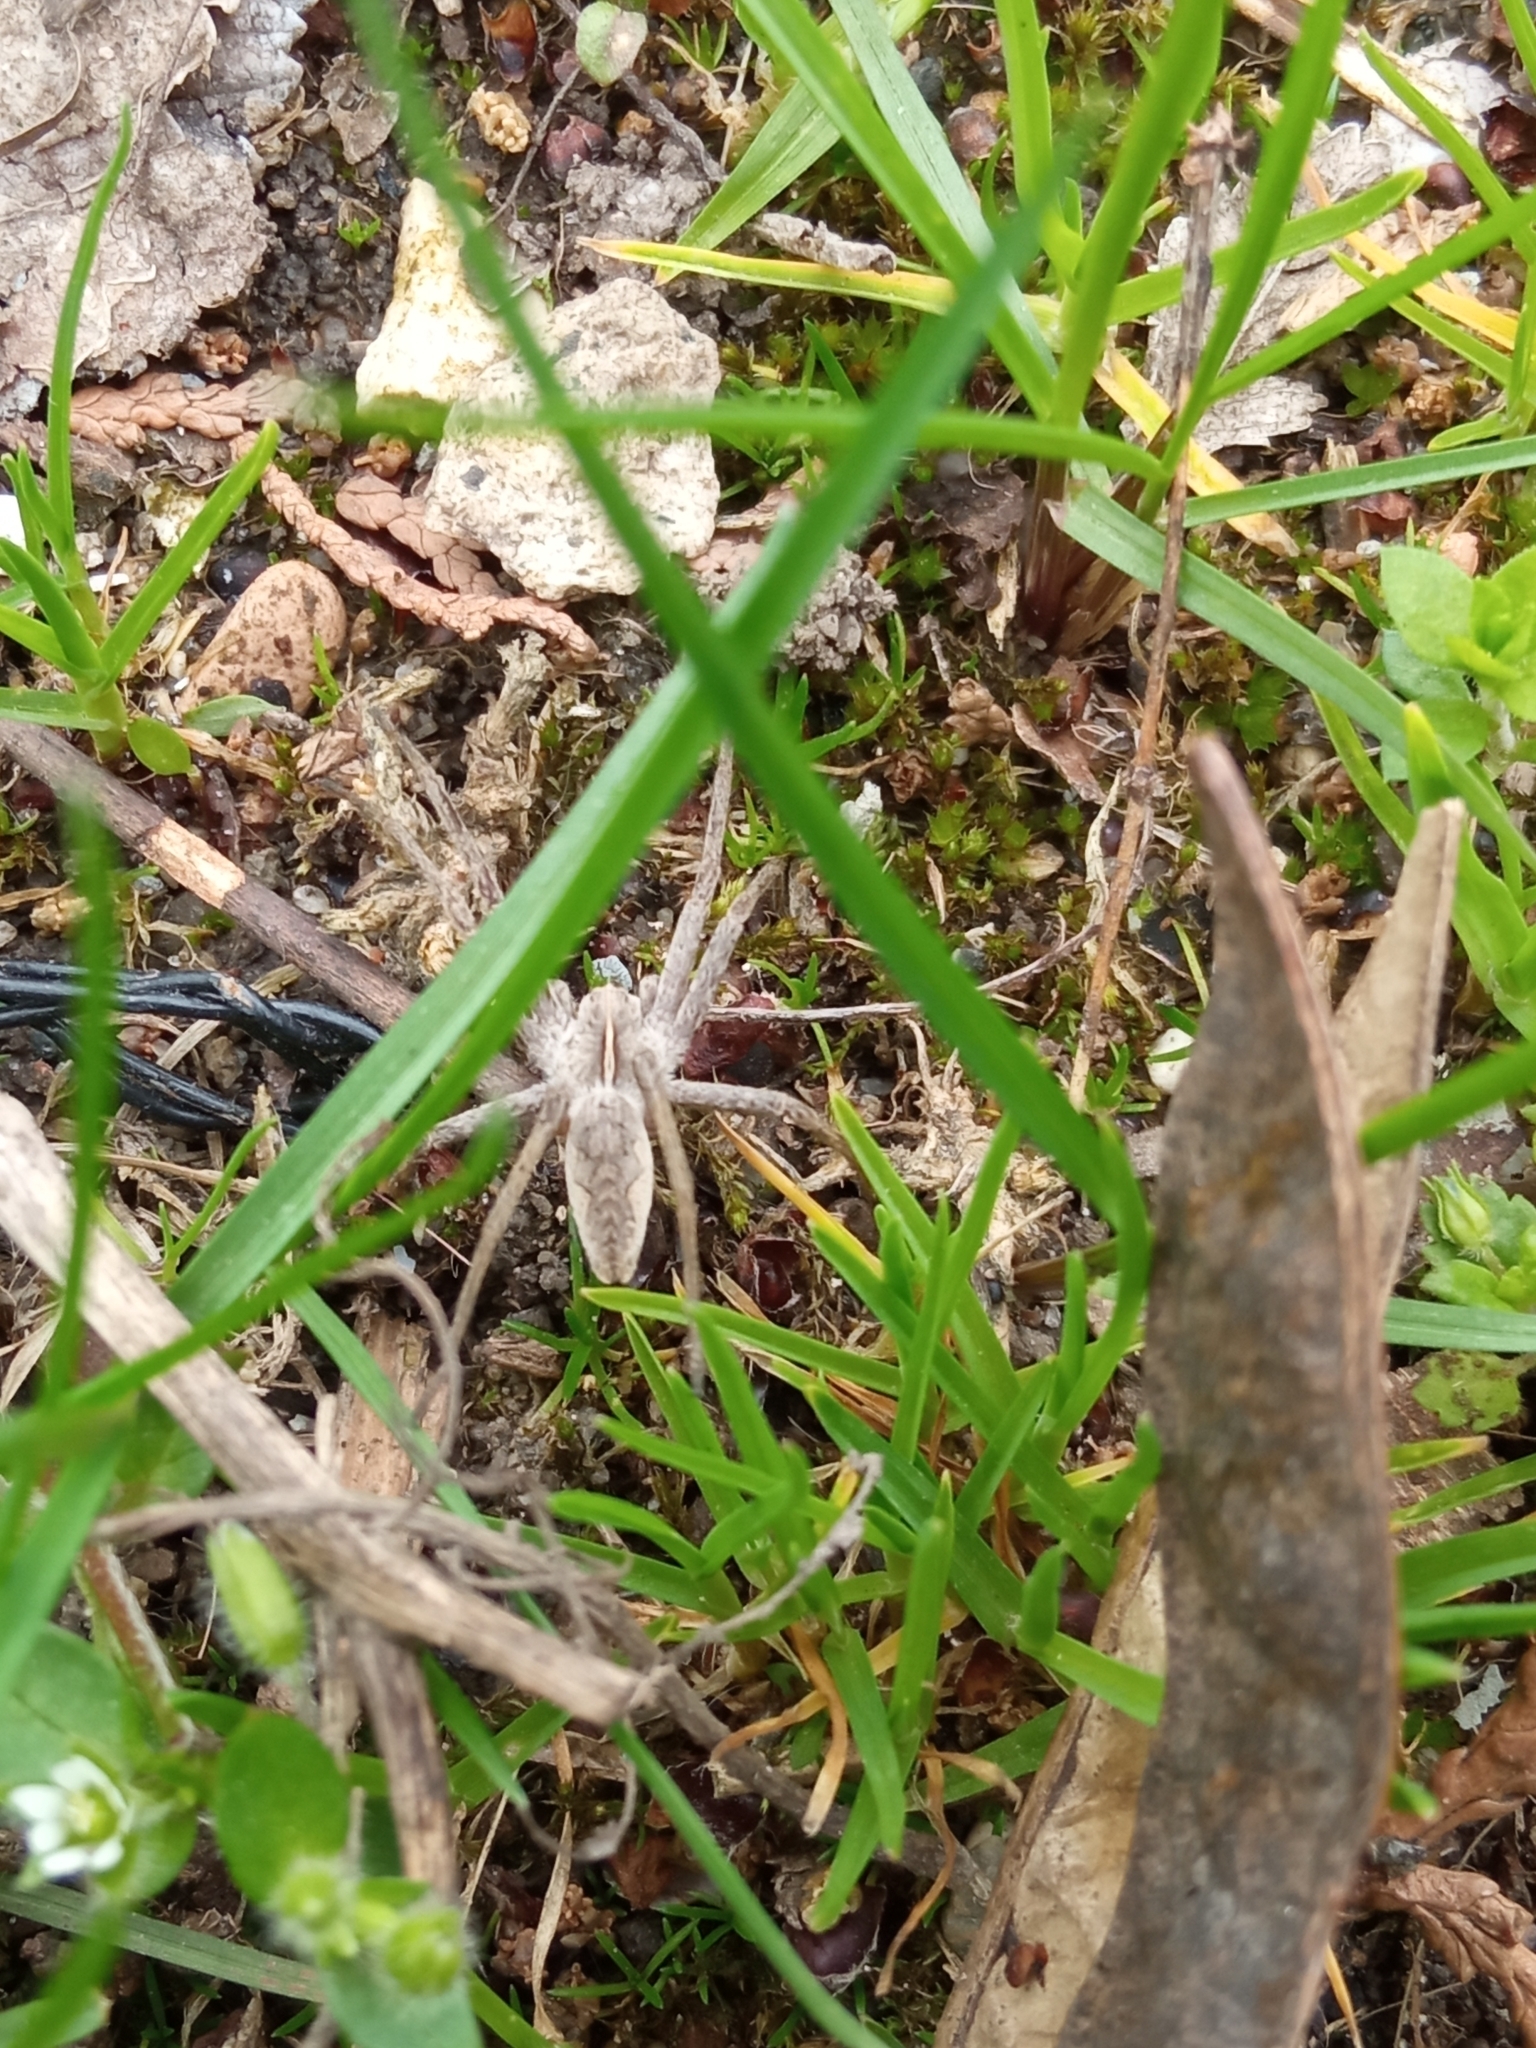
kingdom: Animalia
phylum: Arthropoda
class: Arachnida
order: Araneae
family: Pisauridae
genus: Pisaura
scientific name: Pisaura
